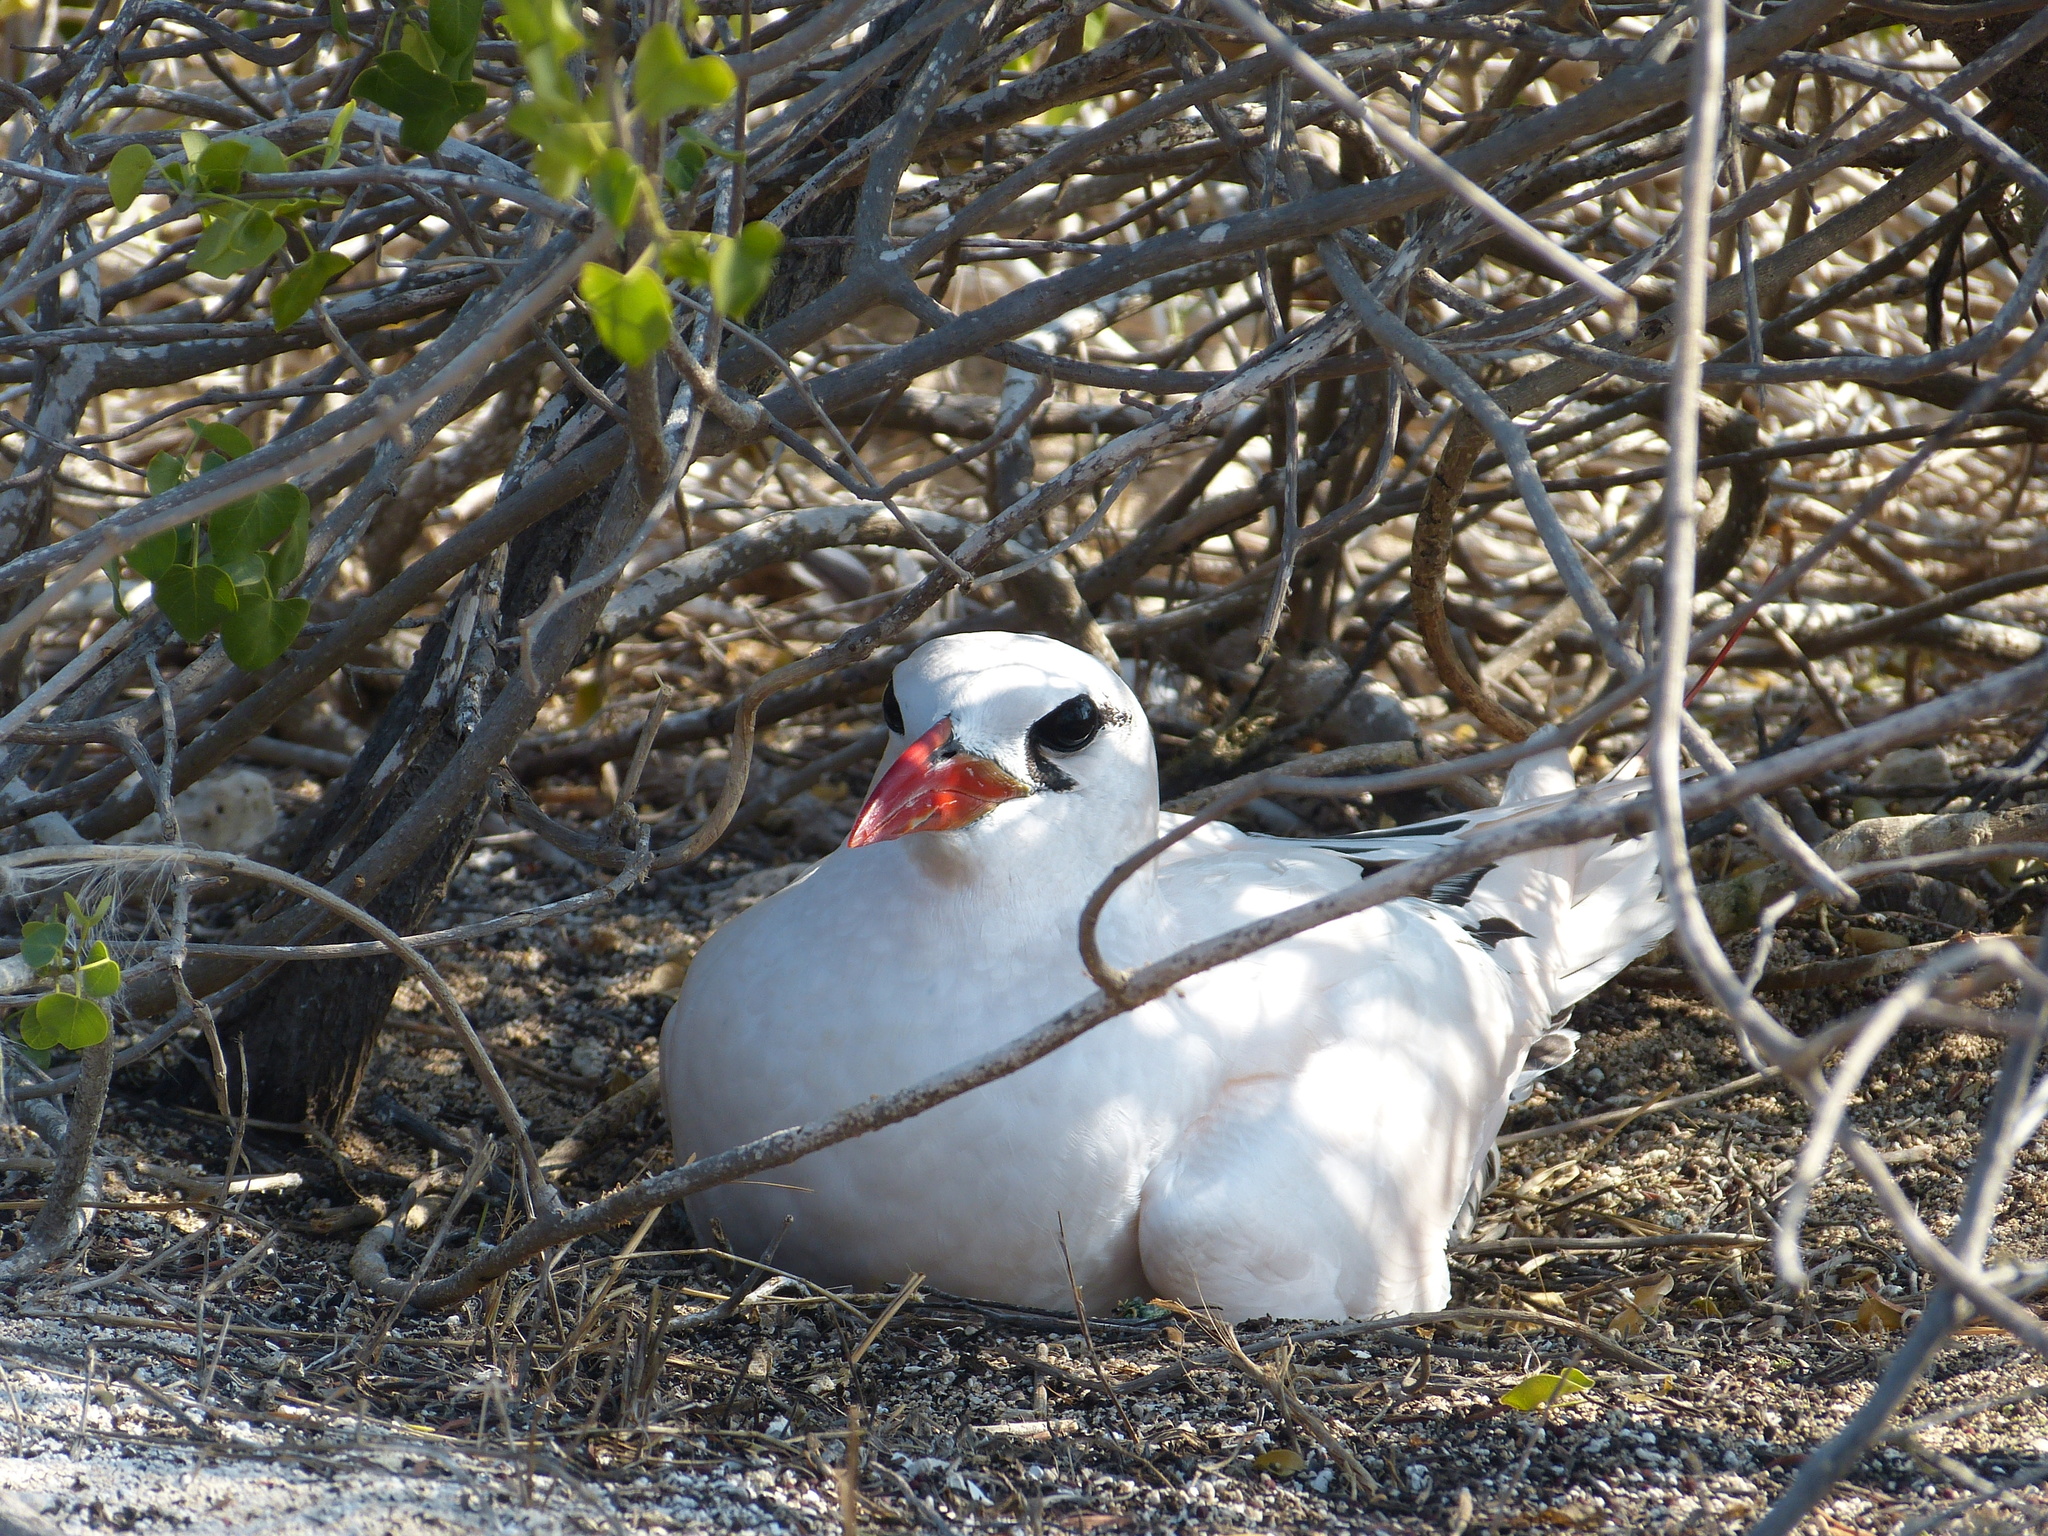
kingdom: Animalia
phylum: Chordata
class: Aves
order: Phaethontiformes
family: Phaethontidae
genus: Phaethon
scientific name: Phaethon rubricauda
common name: Red-tailed tropicbird
